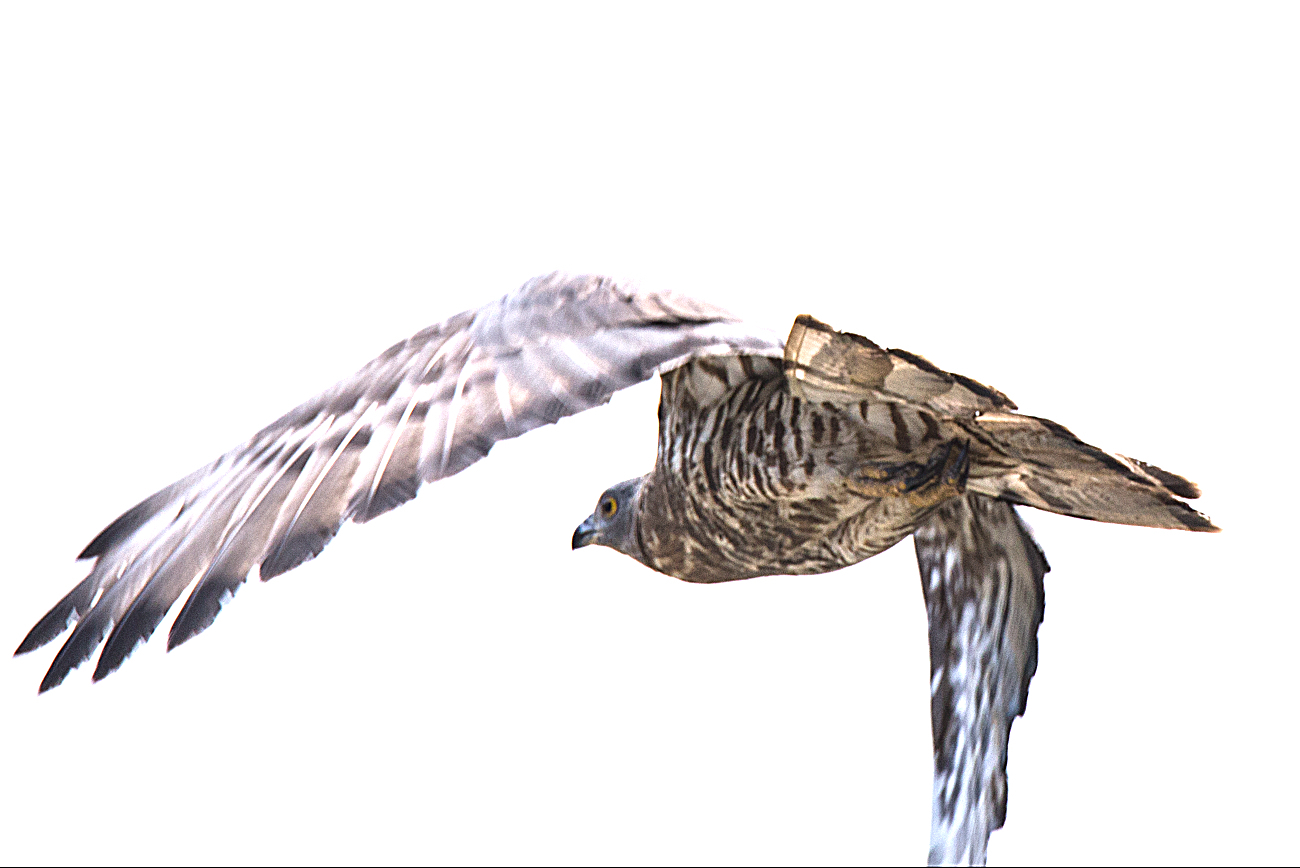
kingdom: Animalia
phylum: Chordata
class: Aves
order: Accipitriformes
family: Accipitridae
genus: Pernis
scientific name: Pernis apivorus
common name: European honey buzzard
